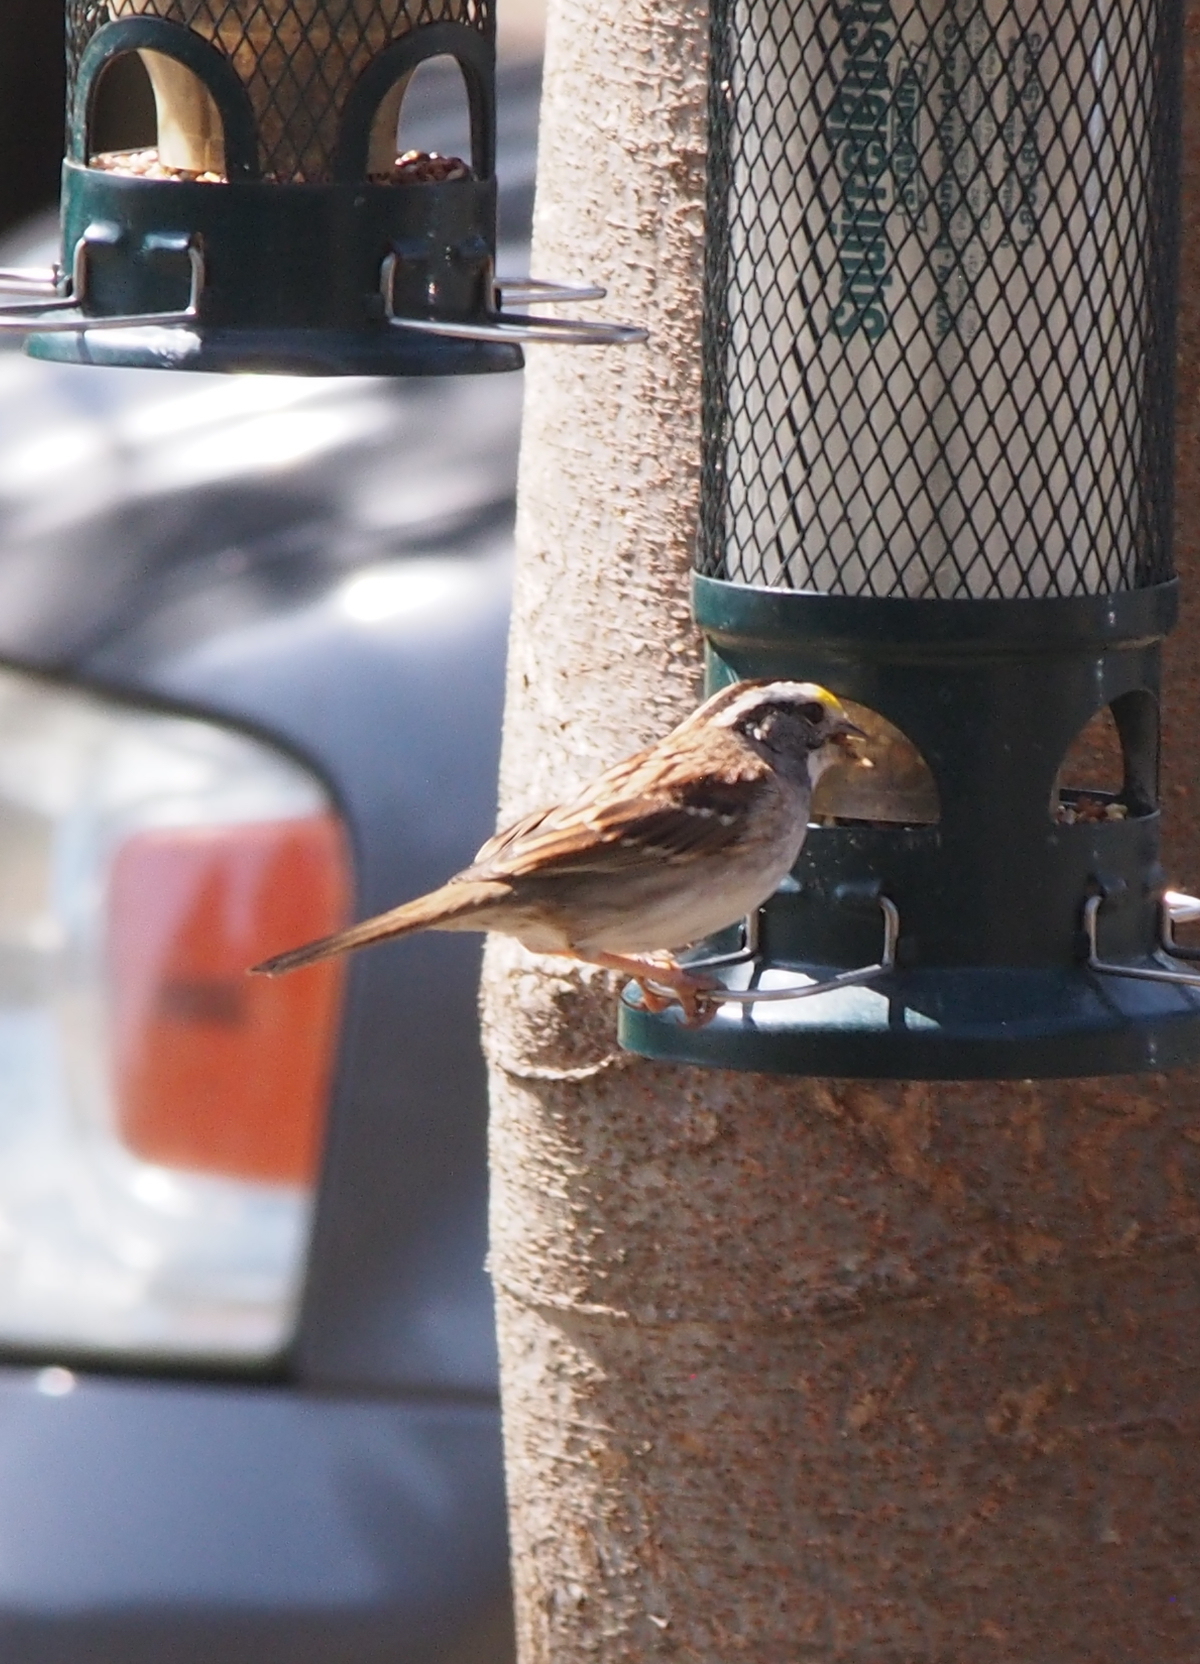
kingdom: Animalia
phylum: Chordata
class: Aves
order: Passeriformes
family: Passerellidae
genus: Zonotrichia
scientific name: Zonotrichia albicollis
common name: White-throated sparrow
